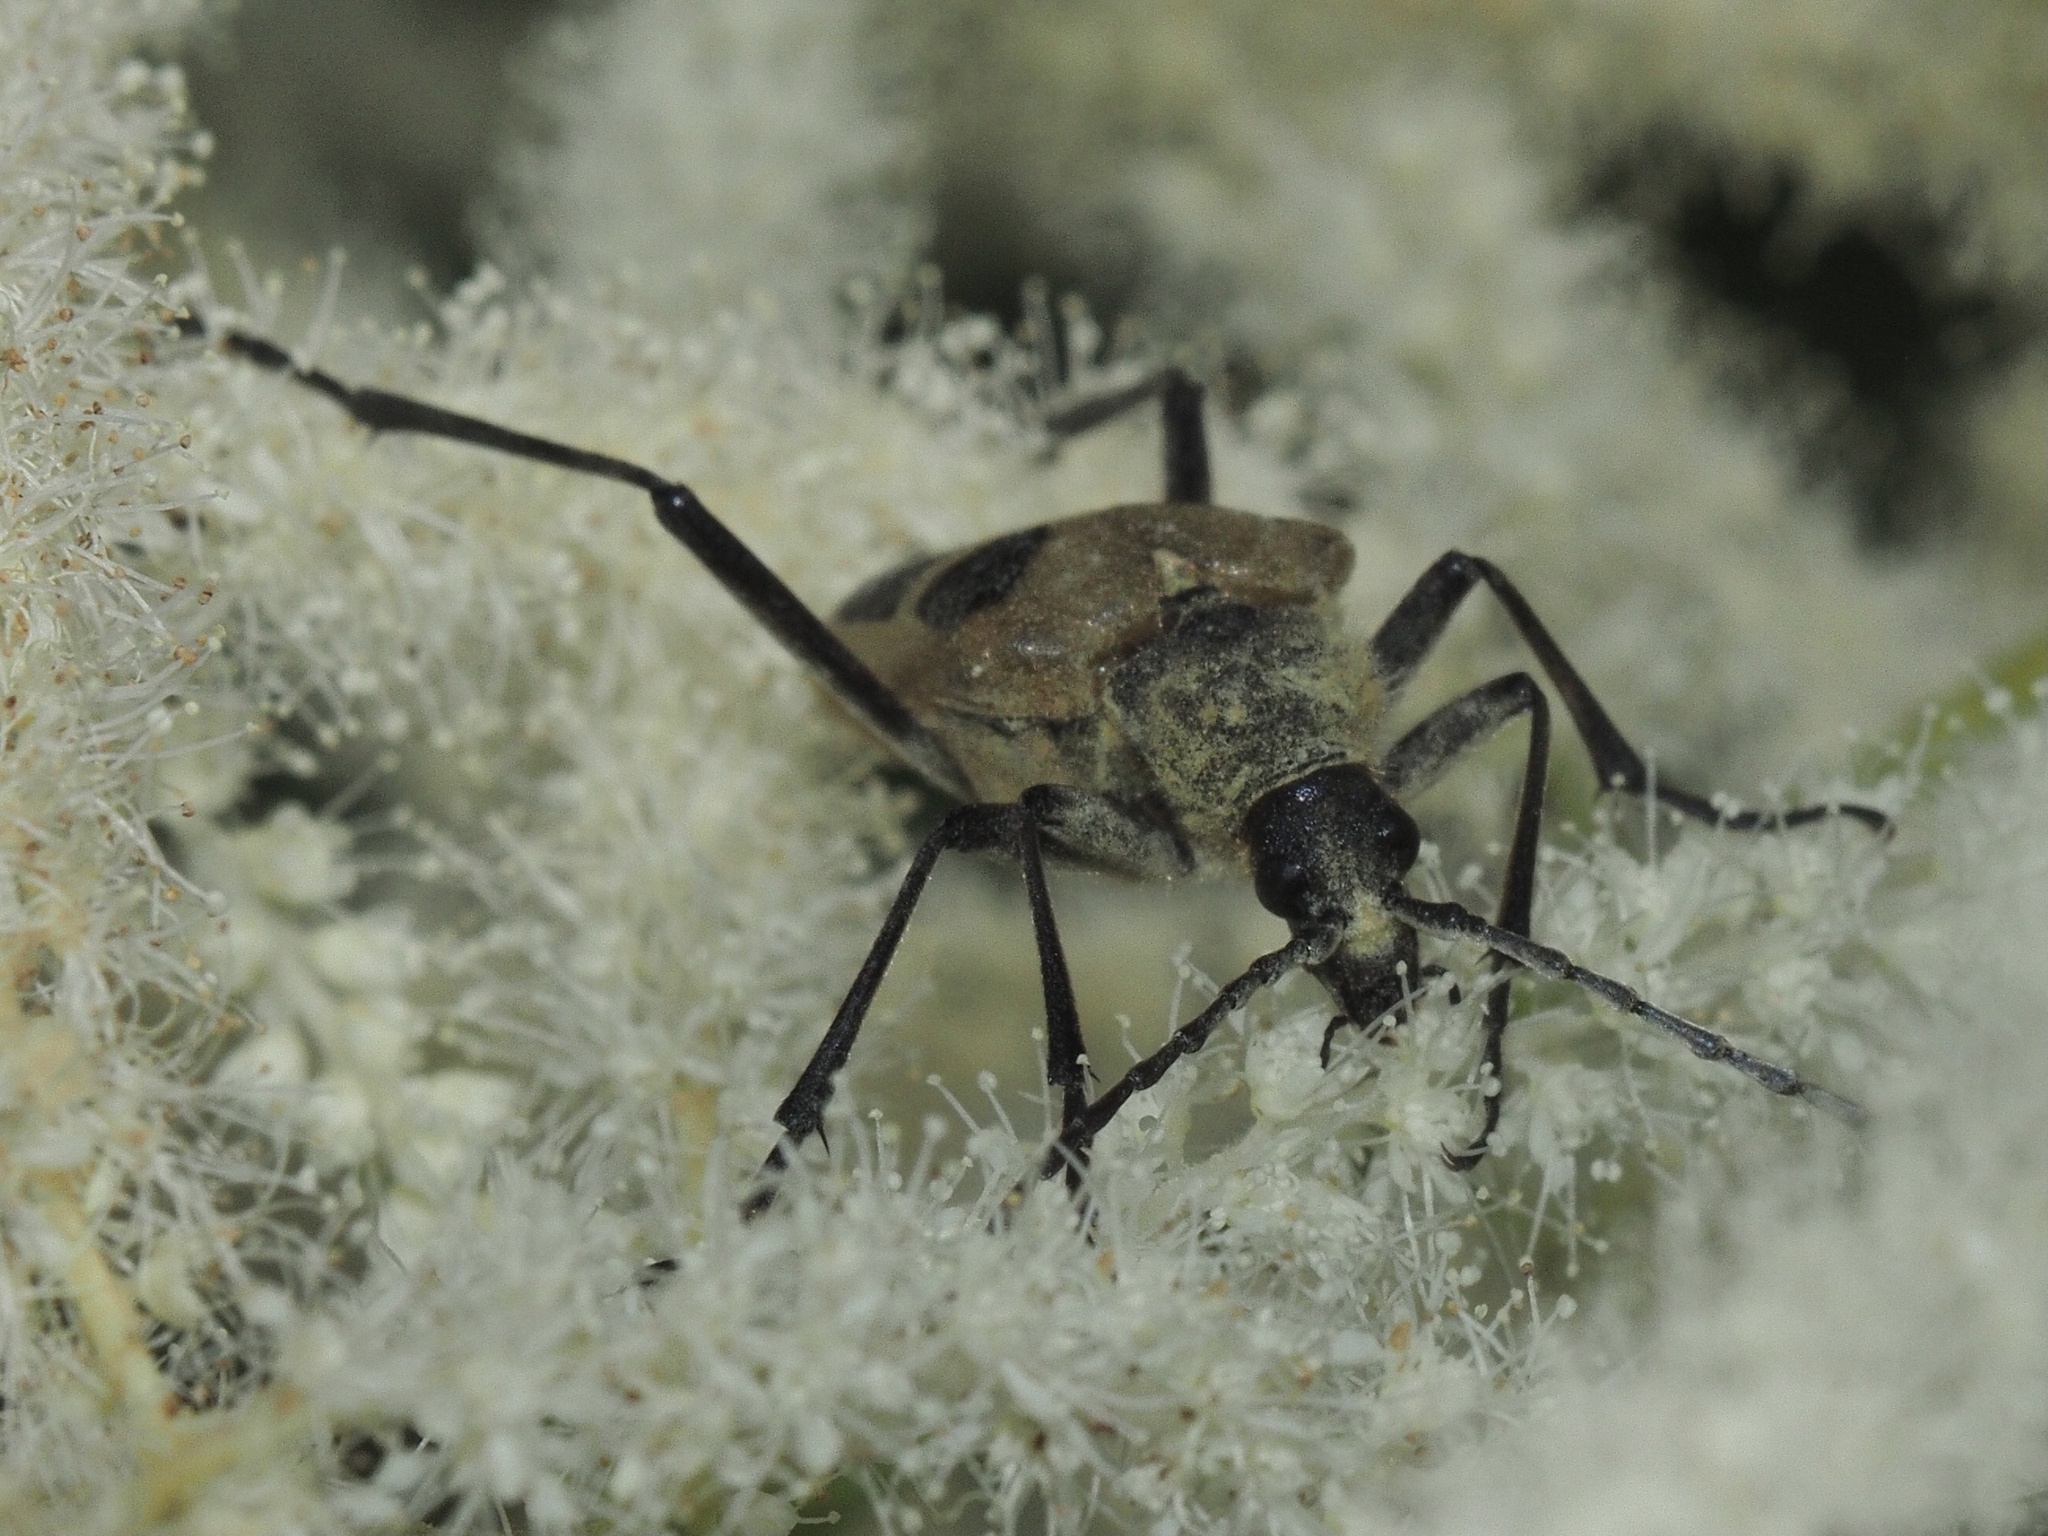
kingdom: Animalia
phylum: Arthropoda
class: Insecta
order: Coleoptera
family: Cerambycidae
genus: Pachyta
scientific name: Pachyta quadrimaculata
